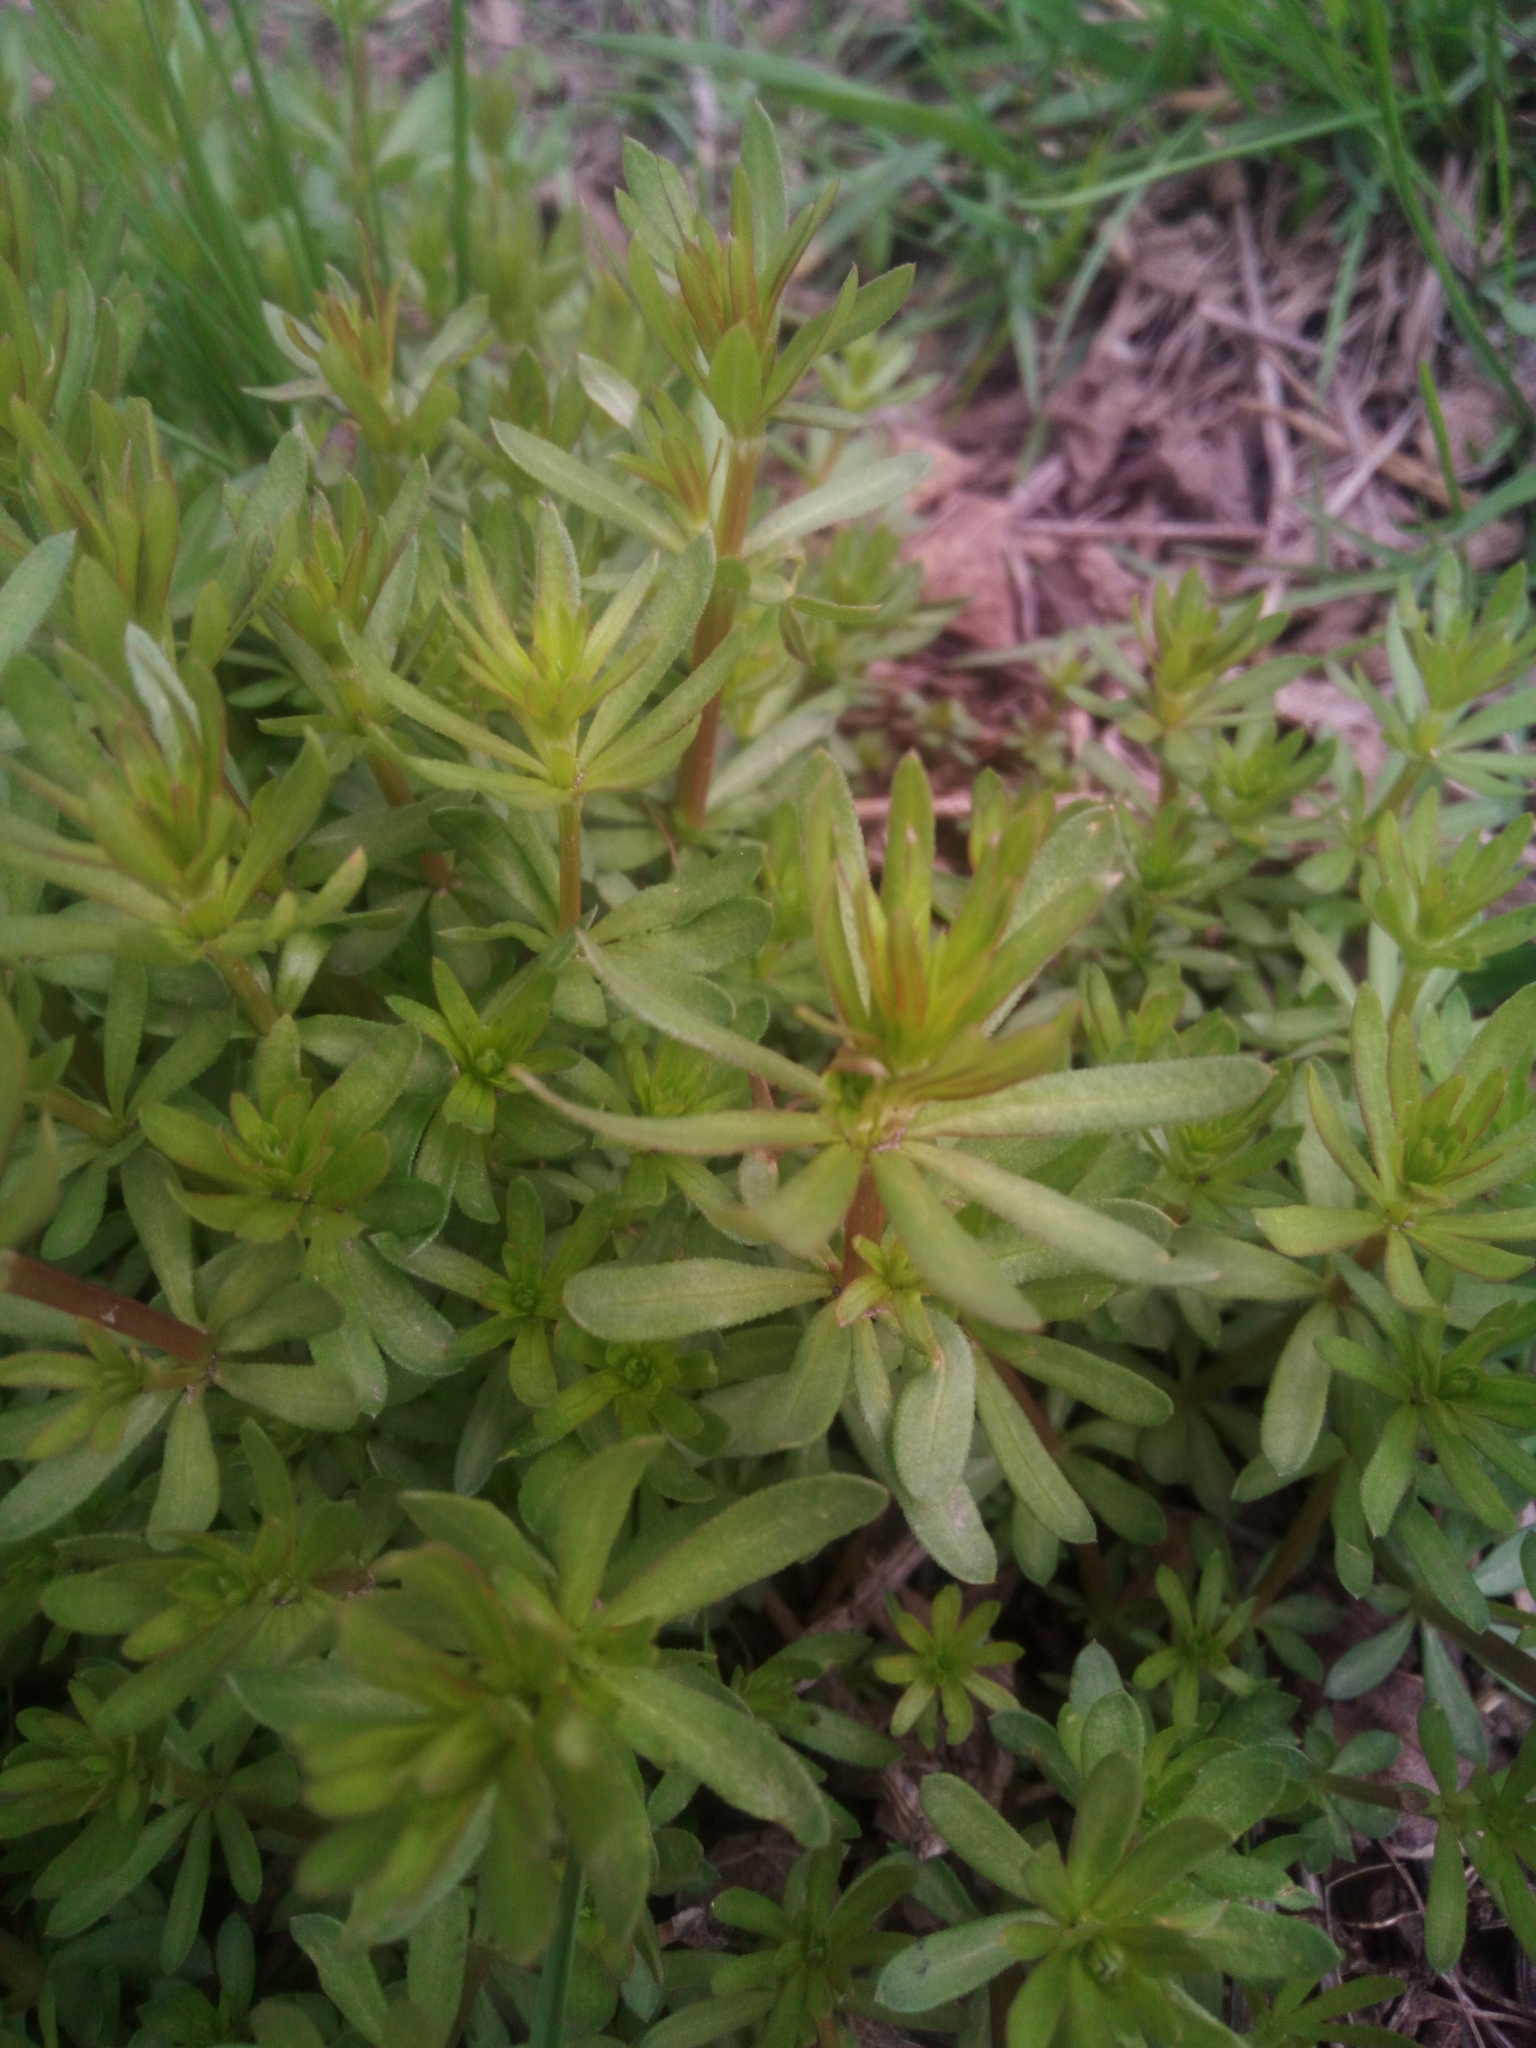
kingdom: Plantae
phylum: Tracheophyta
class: Magnoliopsida
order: Gentianales
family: Rubiaceae
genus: Galium
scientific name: Galium mollugo
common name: Hedge bedstraw
